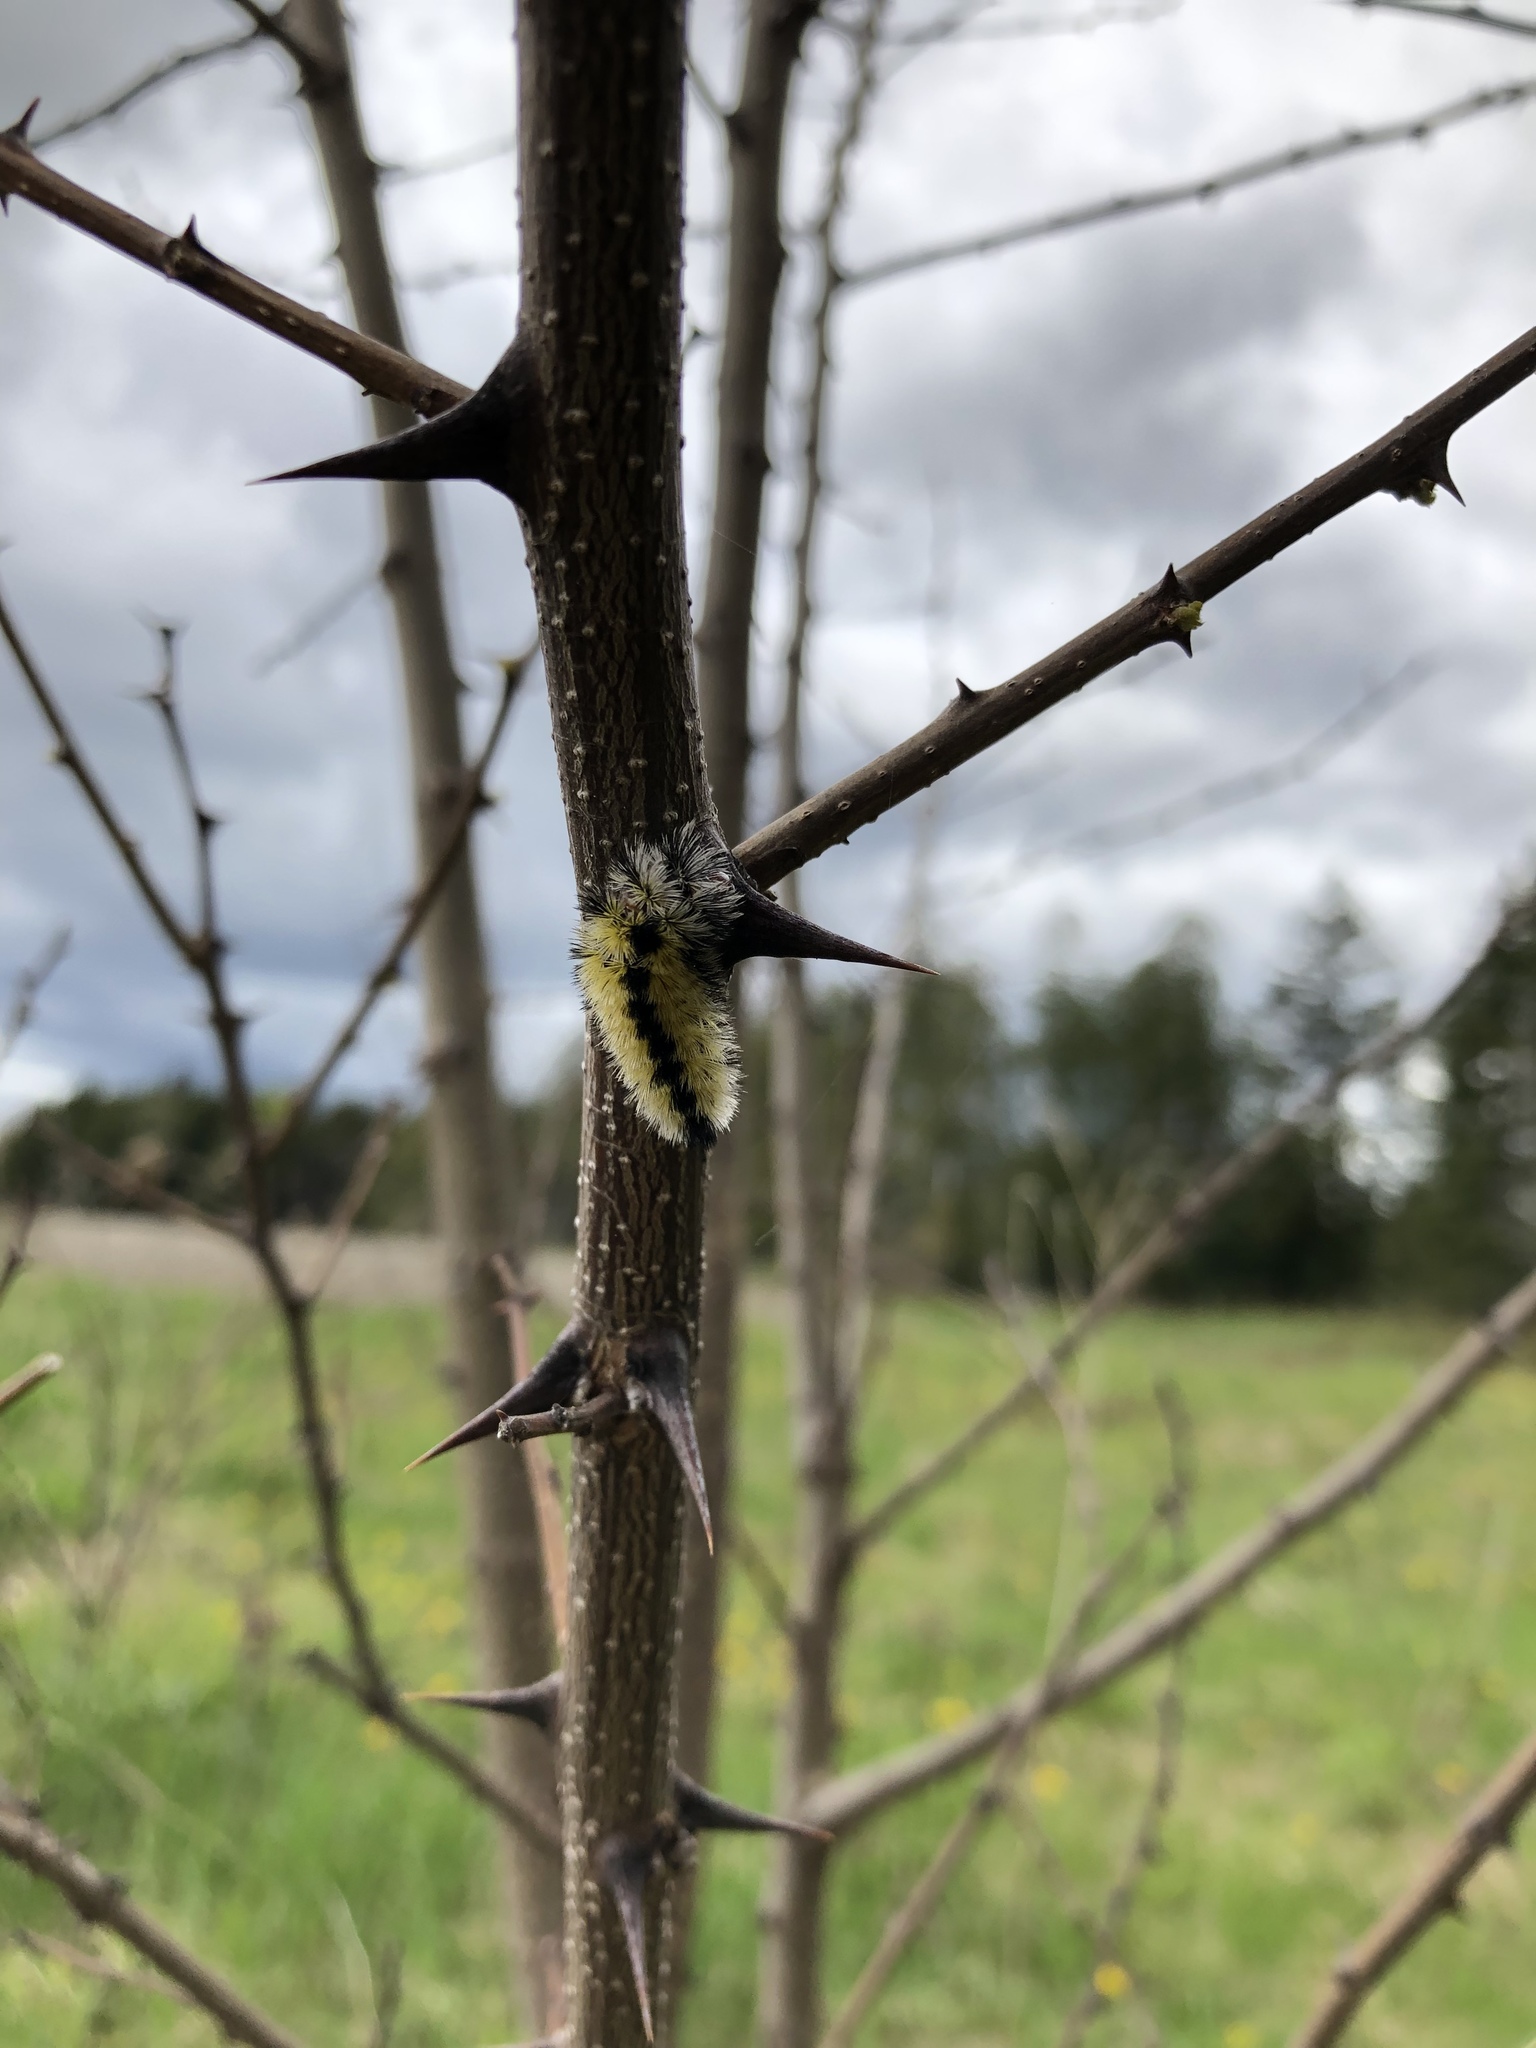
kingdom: Animalia
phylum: Arthropoda
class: Insecta
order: Lepidoptera
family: Erebidae
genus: Ctenucha
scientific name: Ctenucha virginica
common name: Virginia ctenucha moth
